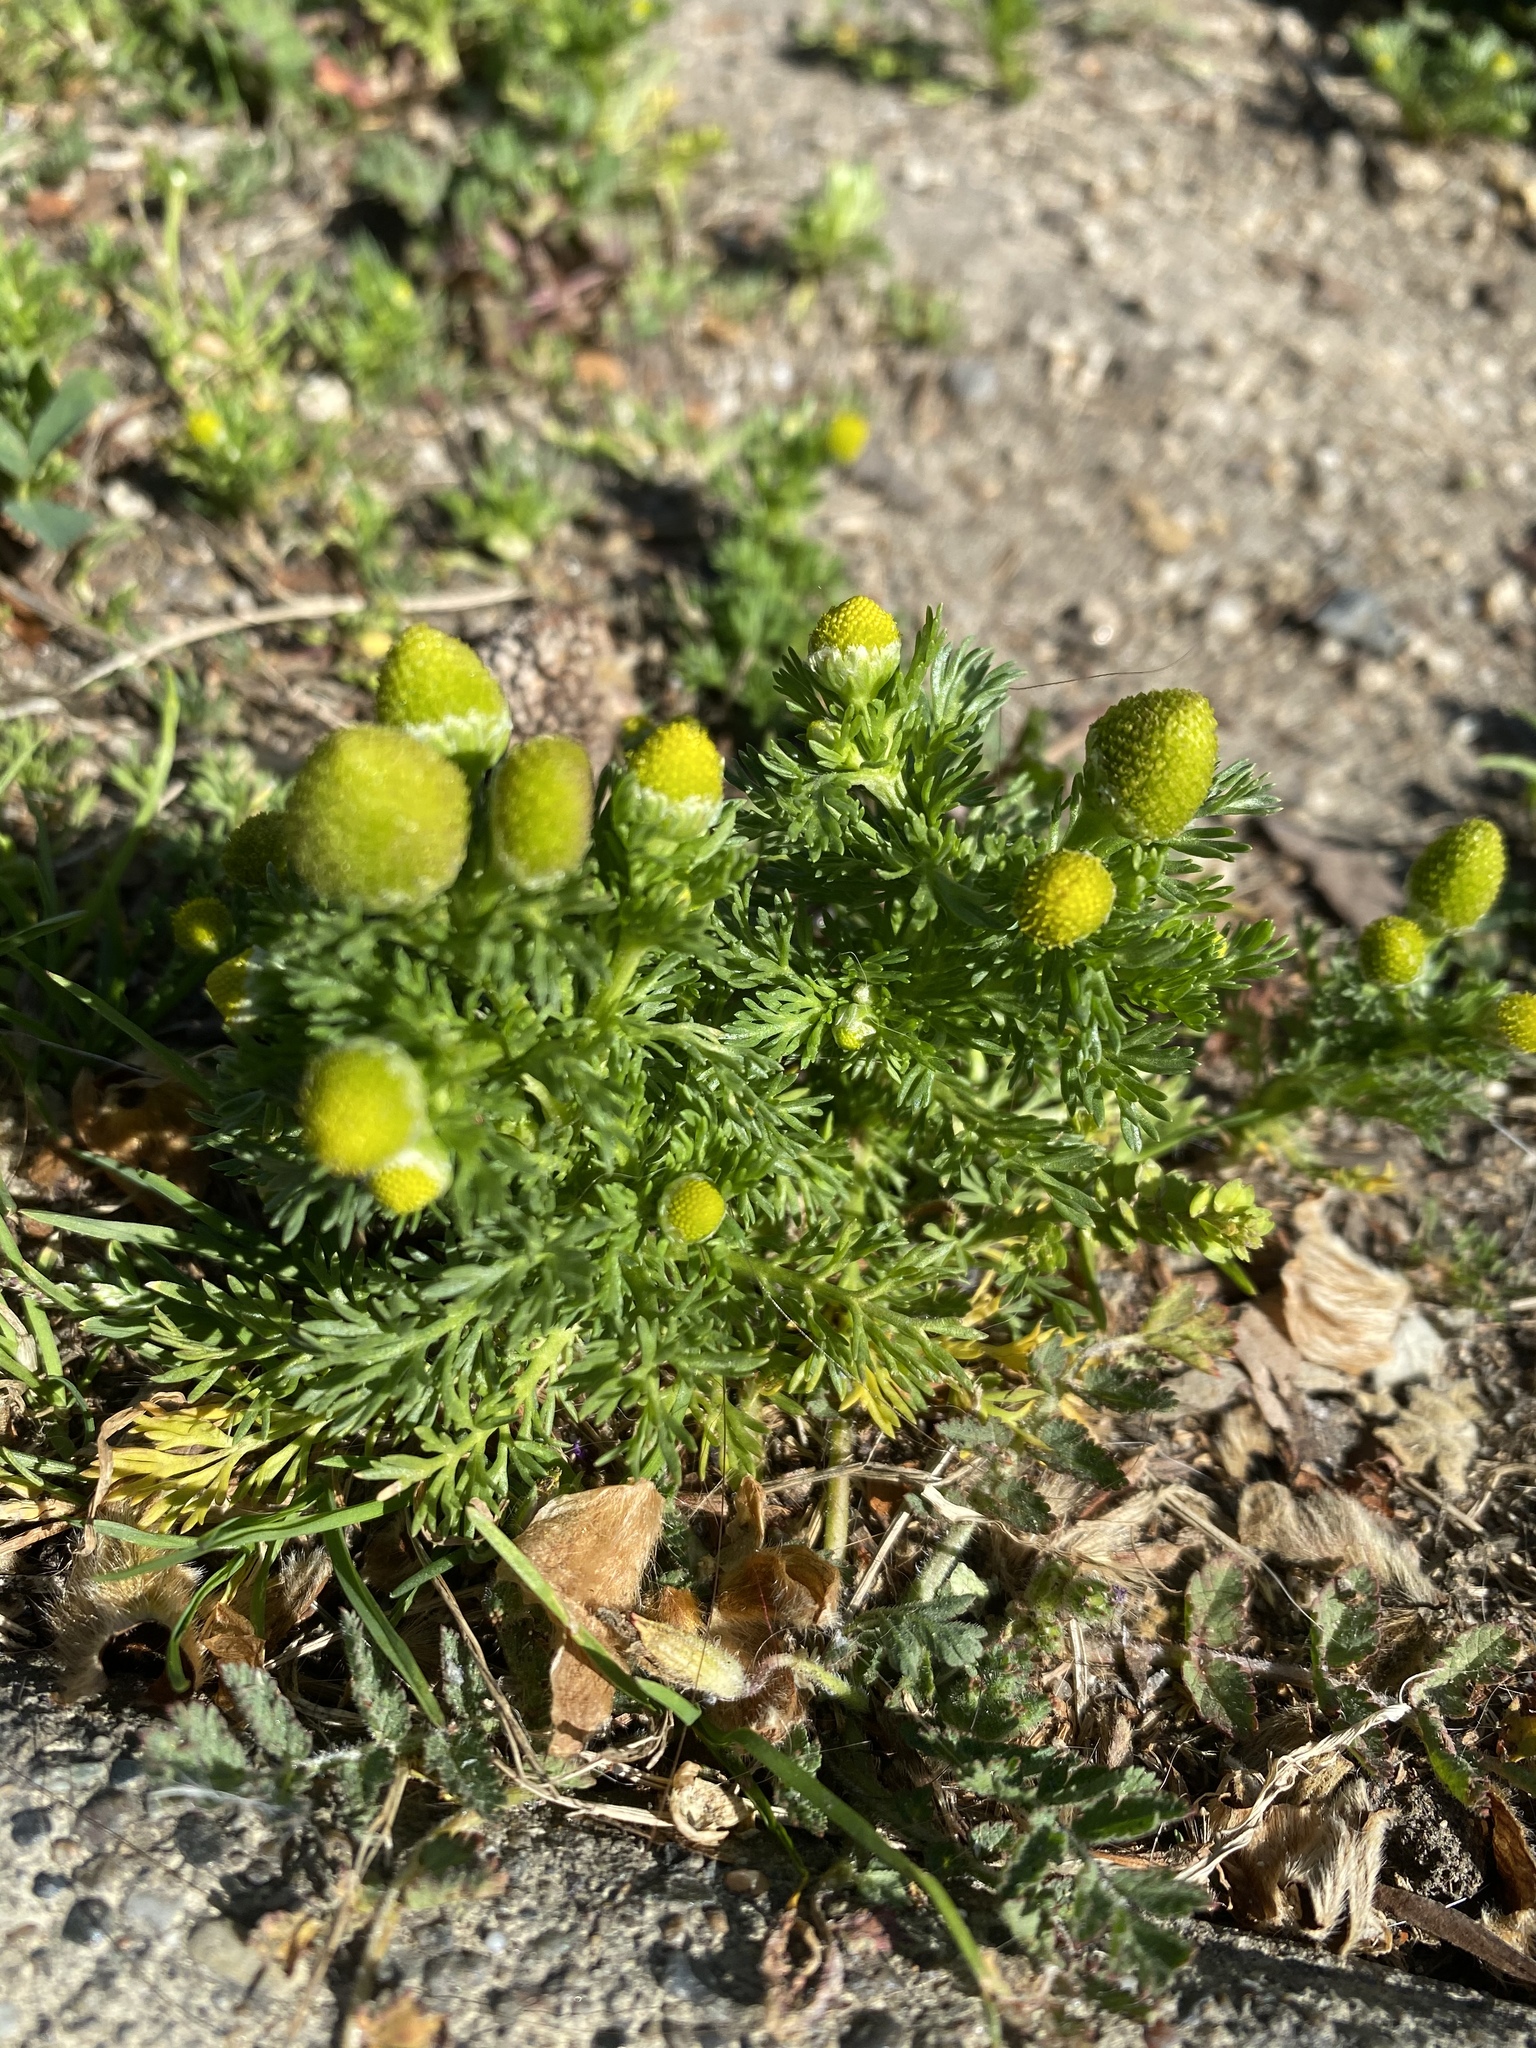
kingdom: Plantae
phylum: Tracheophyta
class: Magnoliopsida
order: Asterales
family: Asteraceae
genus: Matricaria
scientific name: Matricaria discoidea
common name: Disc mayweed
